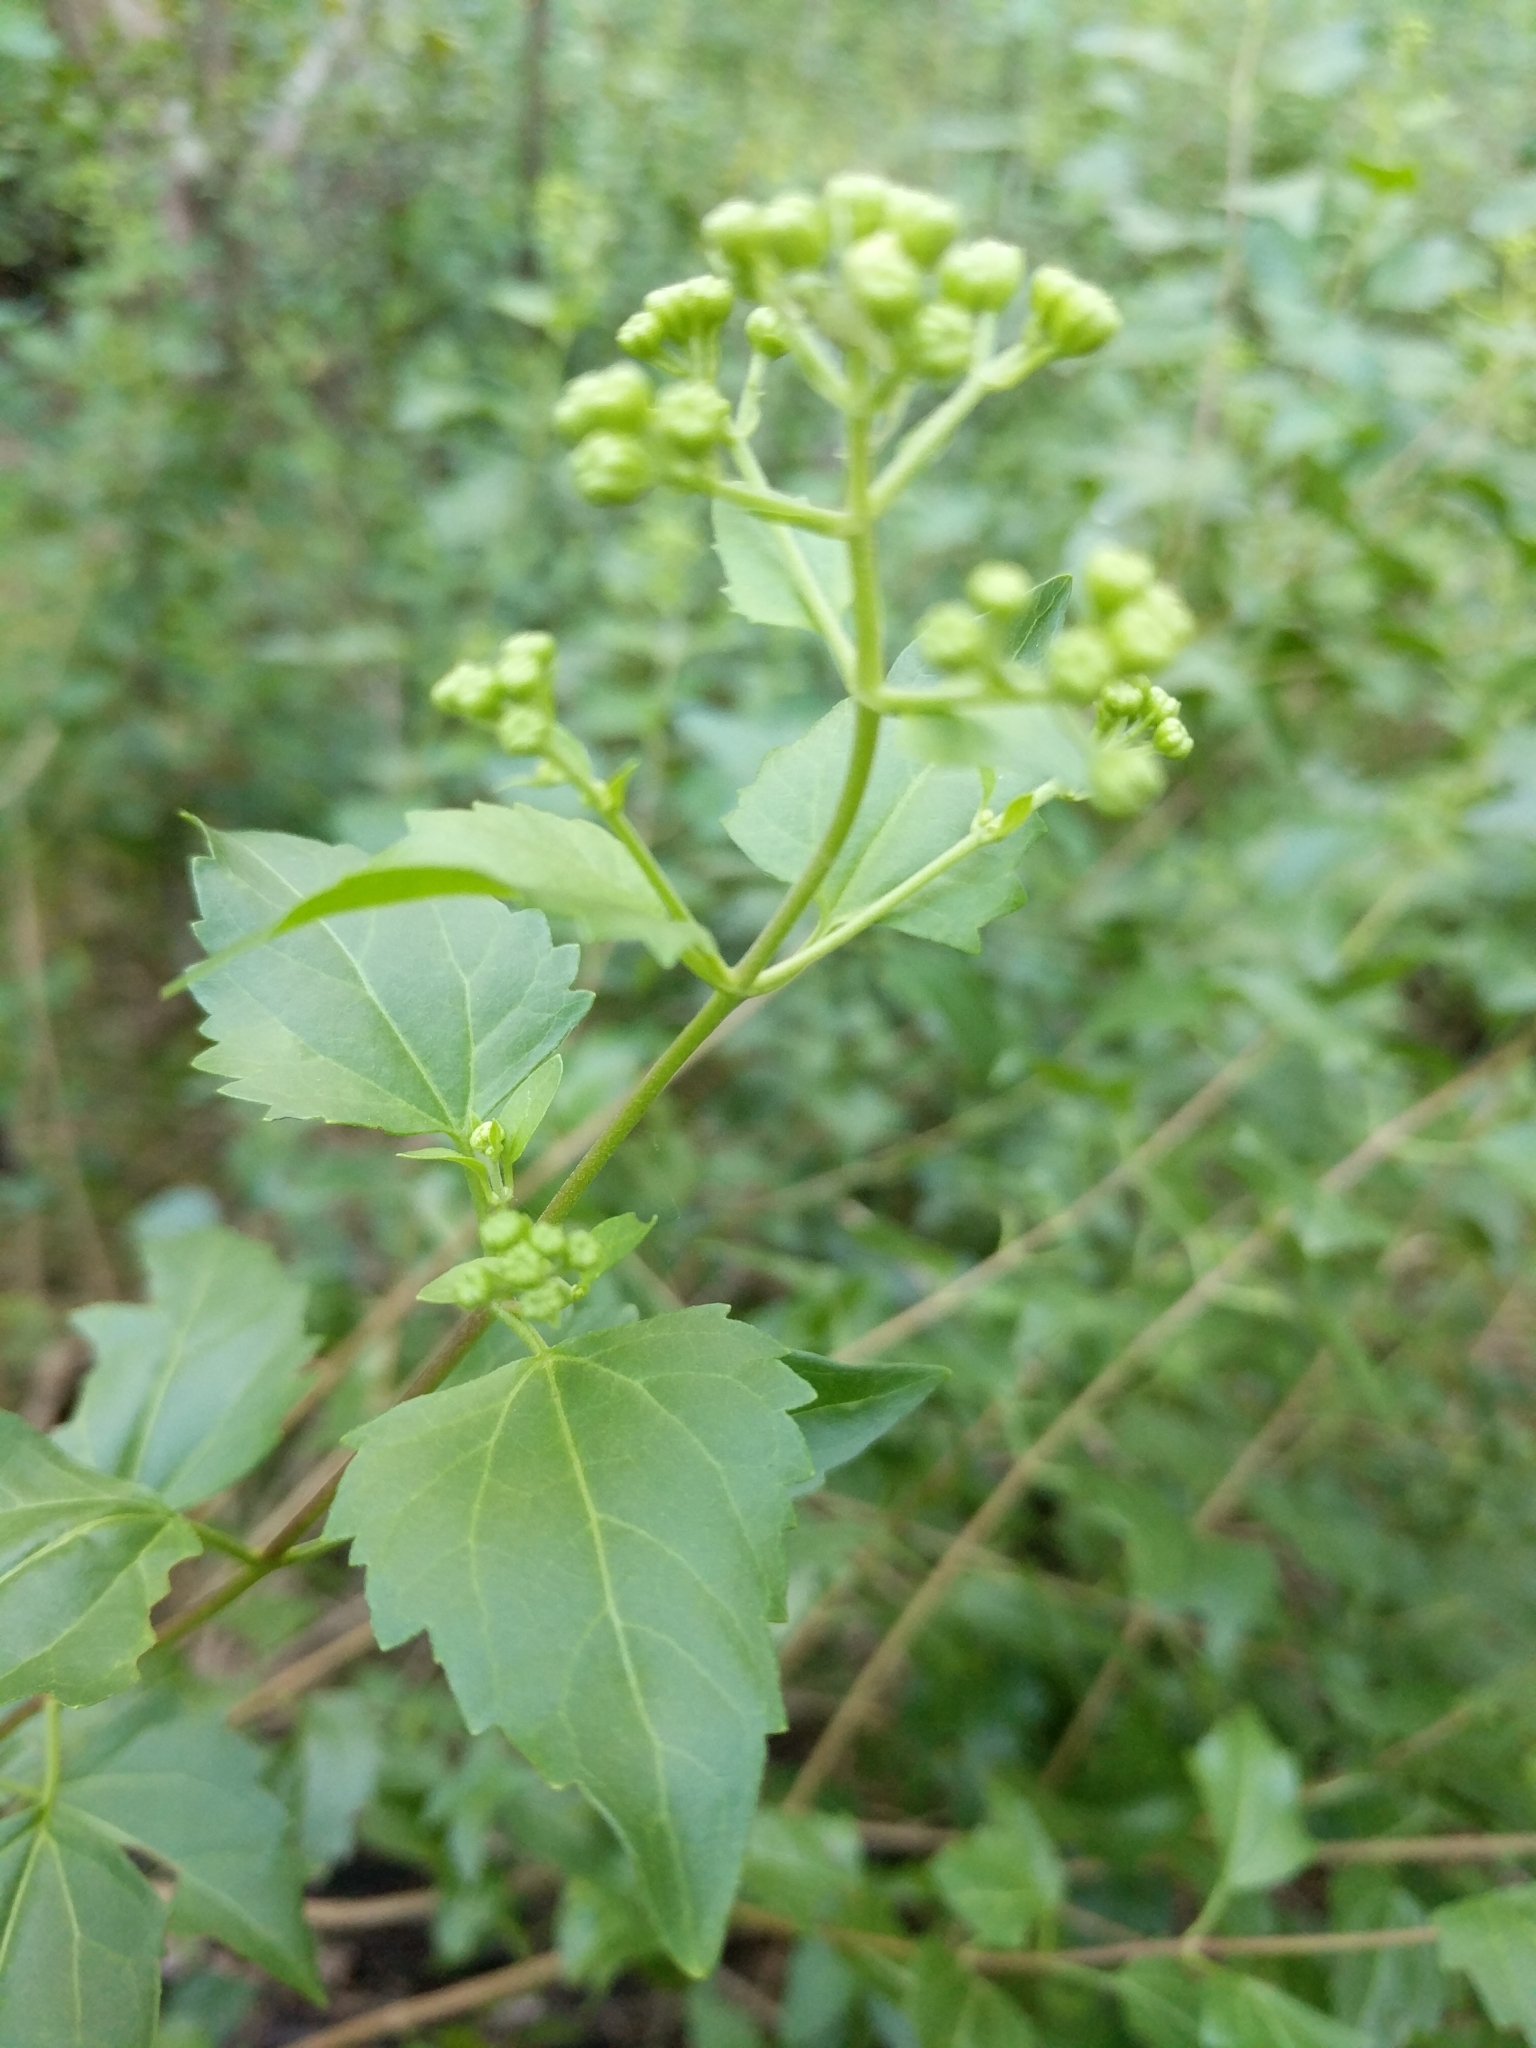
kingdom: Plantae
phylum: Tracheophyta
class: Magnoliopsida
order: Asterales
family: Asteraceae
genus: Ageratina
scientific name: Ageratina havanensis
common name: Havana snakeroot
